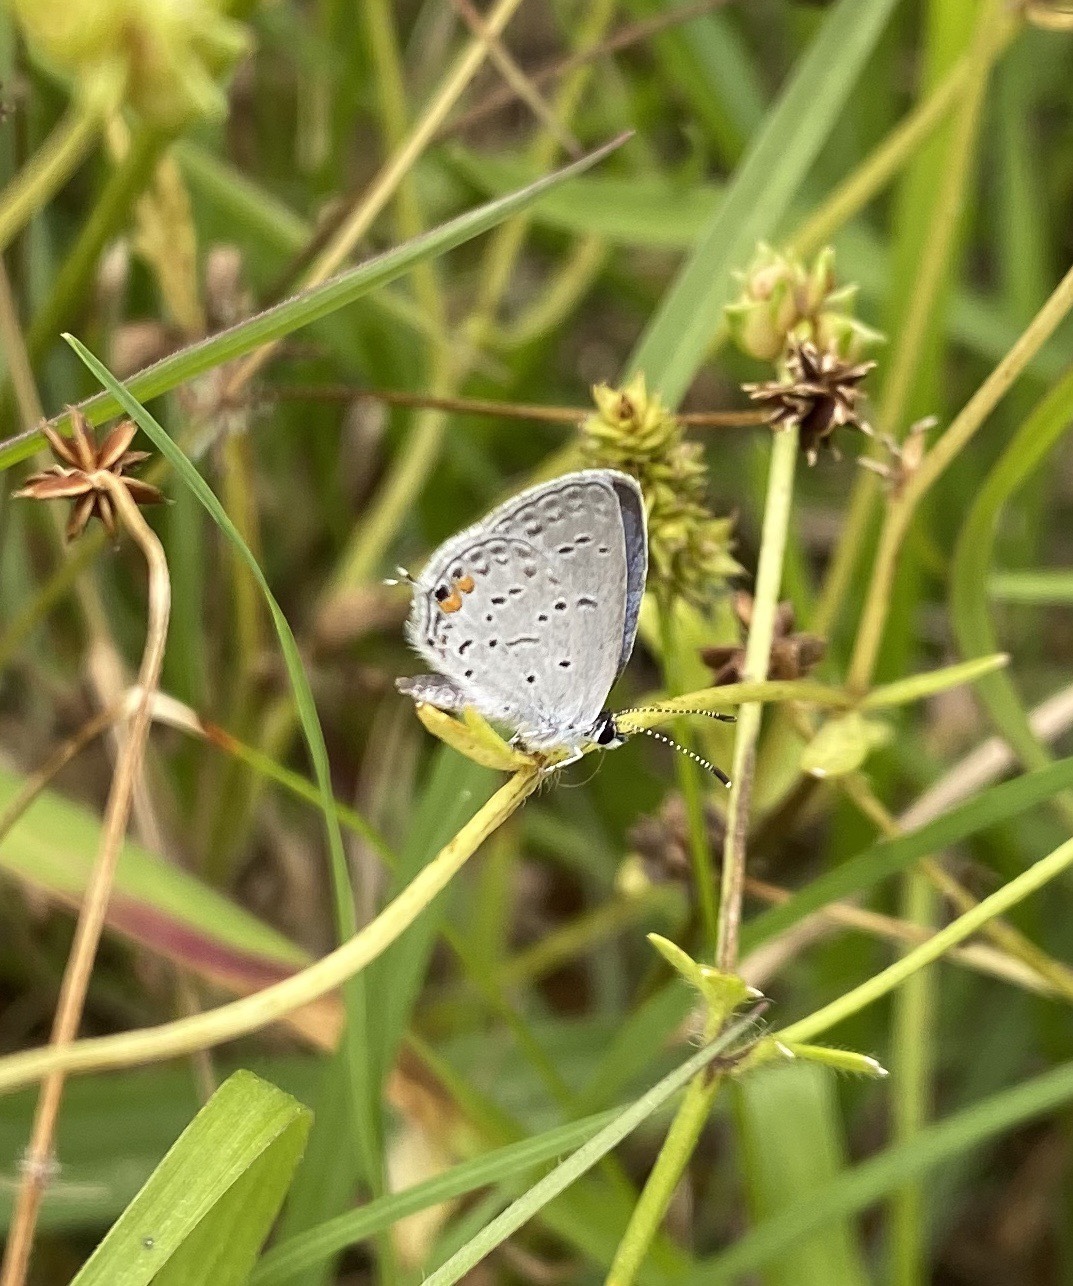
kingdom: Animalia
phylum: Arthropoda
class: Insecta
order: Lepidoptera
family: Lycaenidae
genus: Elkalyce
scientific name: Elkalyce comyntas
